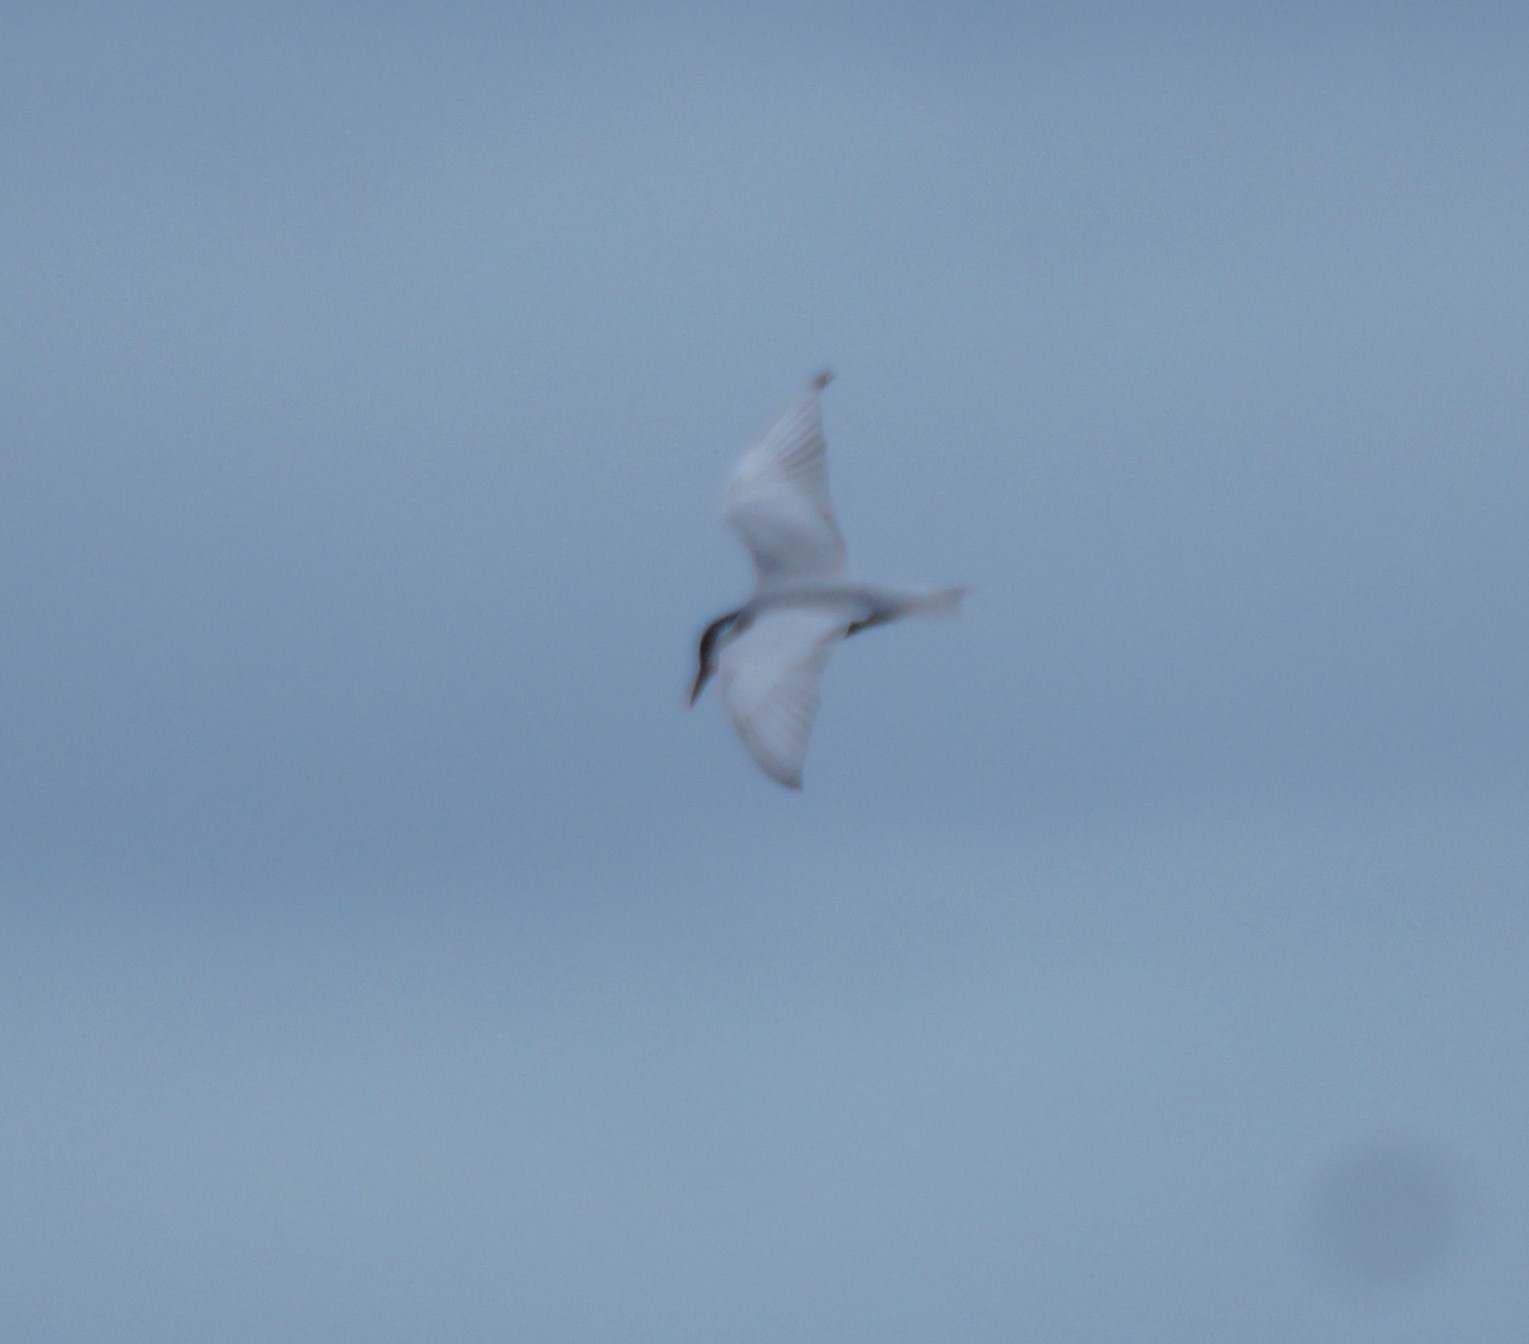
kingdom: Animalia
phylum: Chordata
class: Aves
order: Charadriiformes
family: Laridae
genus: Chlidonias
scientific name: Chlidonias hybrida
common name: Whiskered tern
